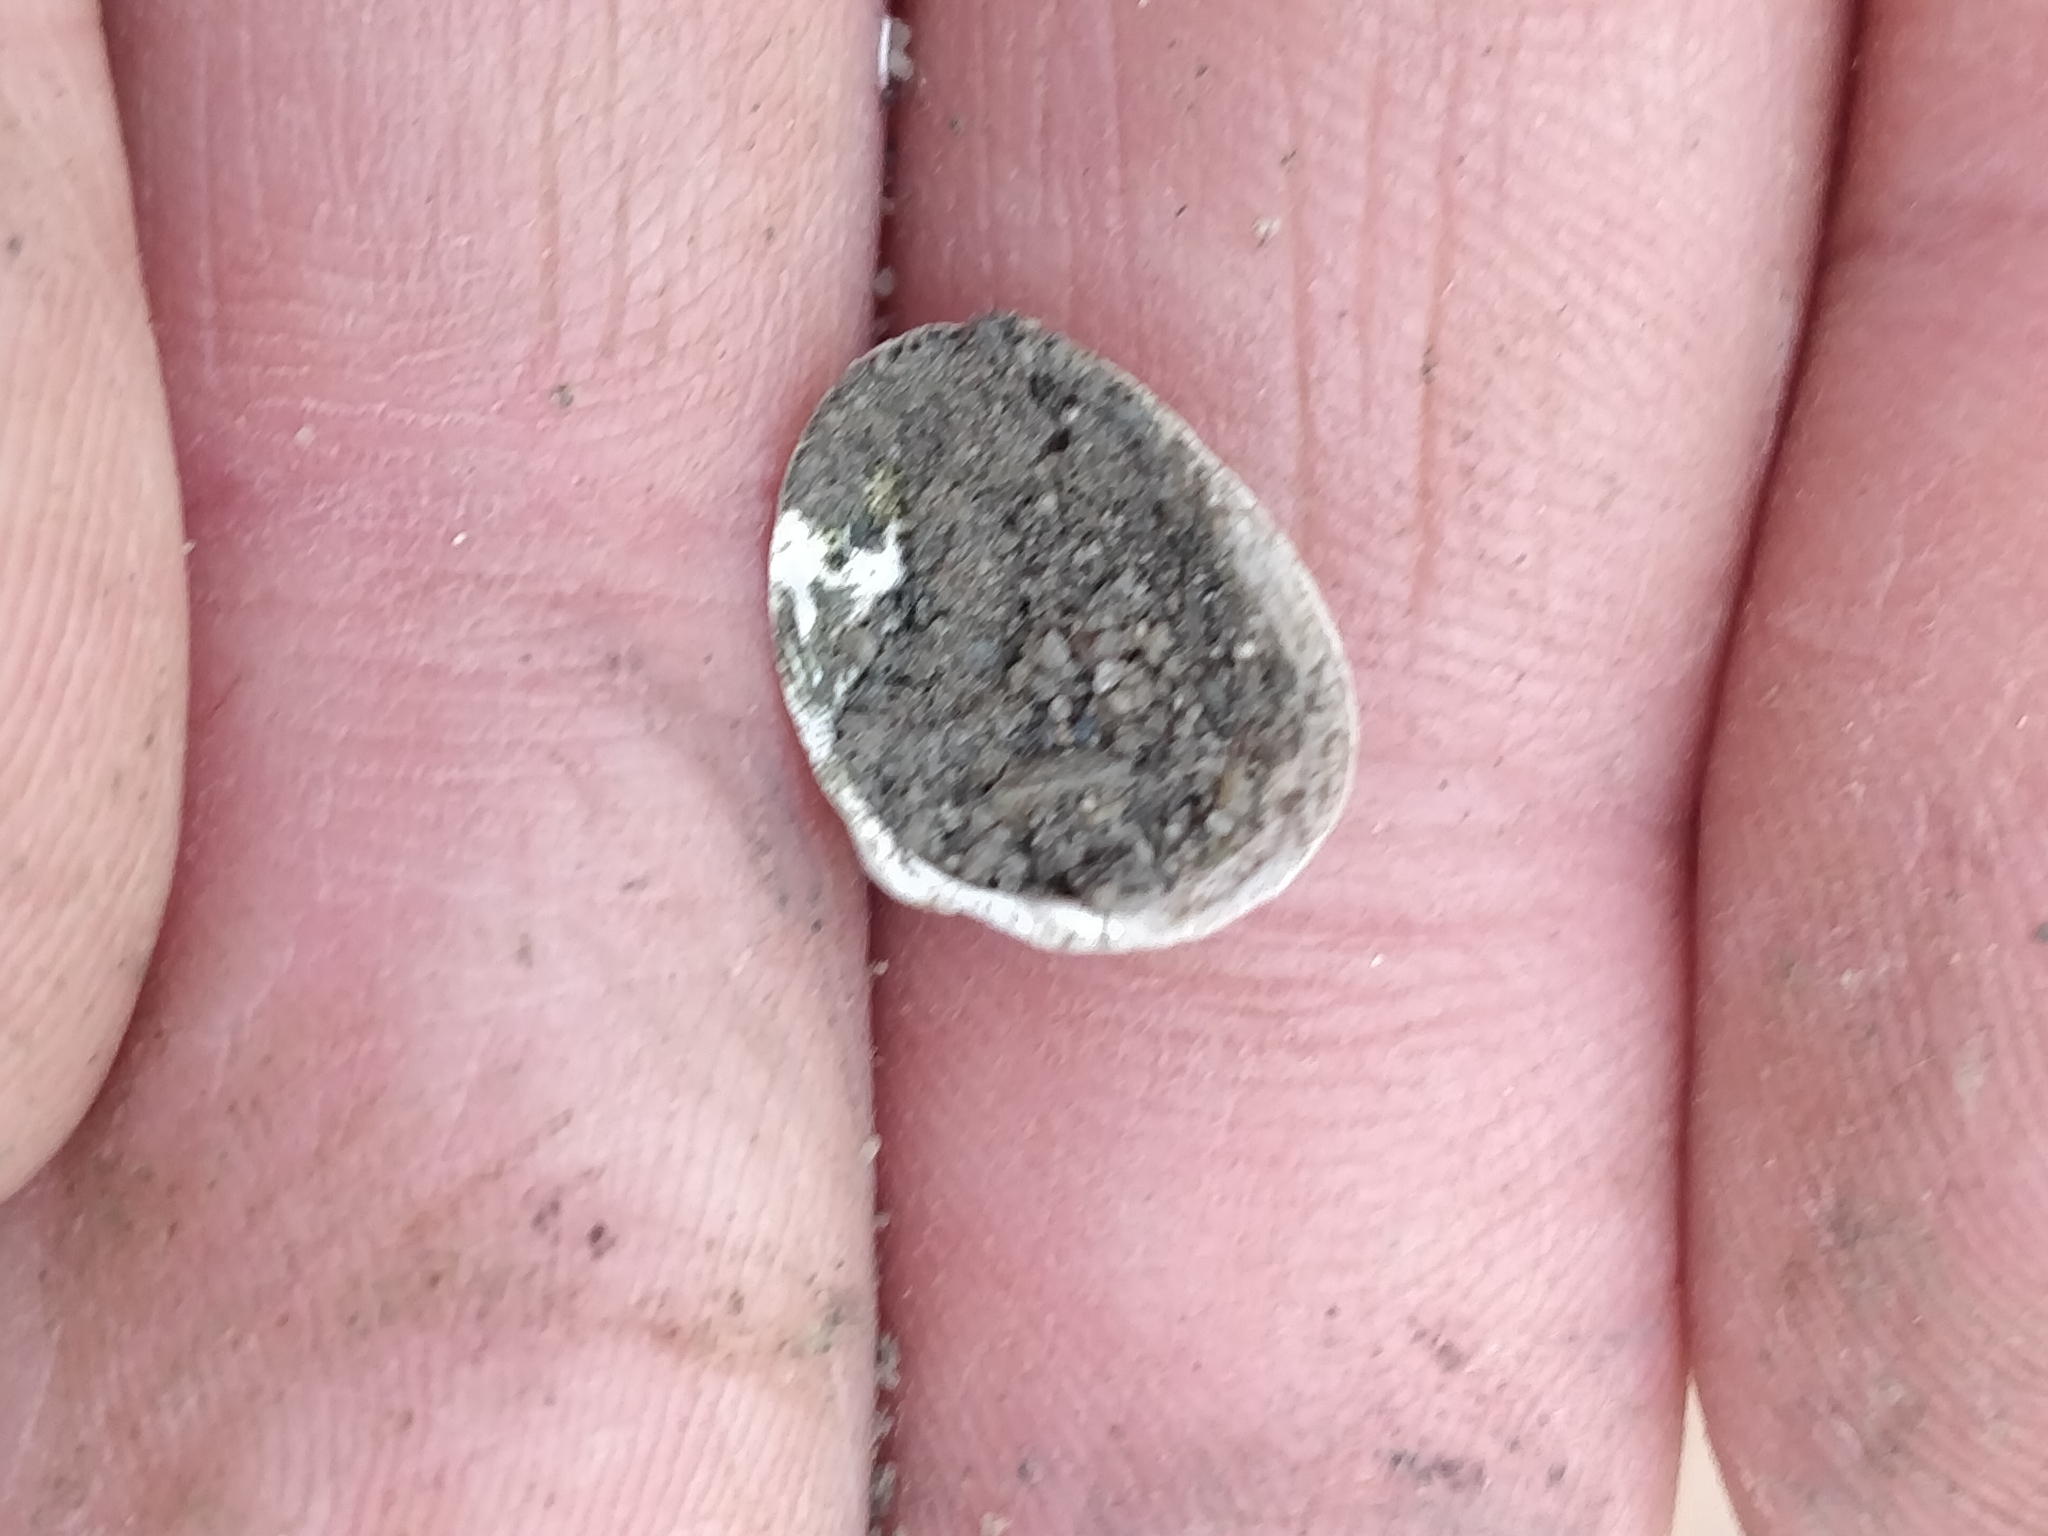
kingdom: Animalia
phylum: Mollusca
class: Bivalvia
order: Sphaeriida
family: Sphaeriidae
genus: Sphaerium
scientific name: Sphaerium striatinum
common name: Striated fingernailclam
